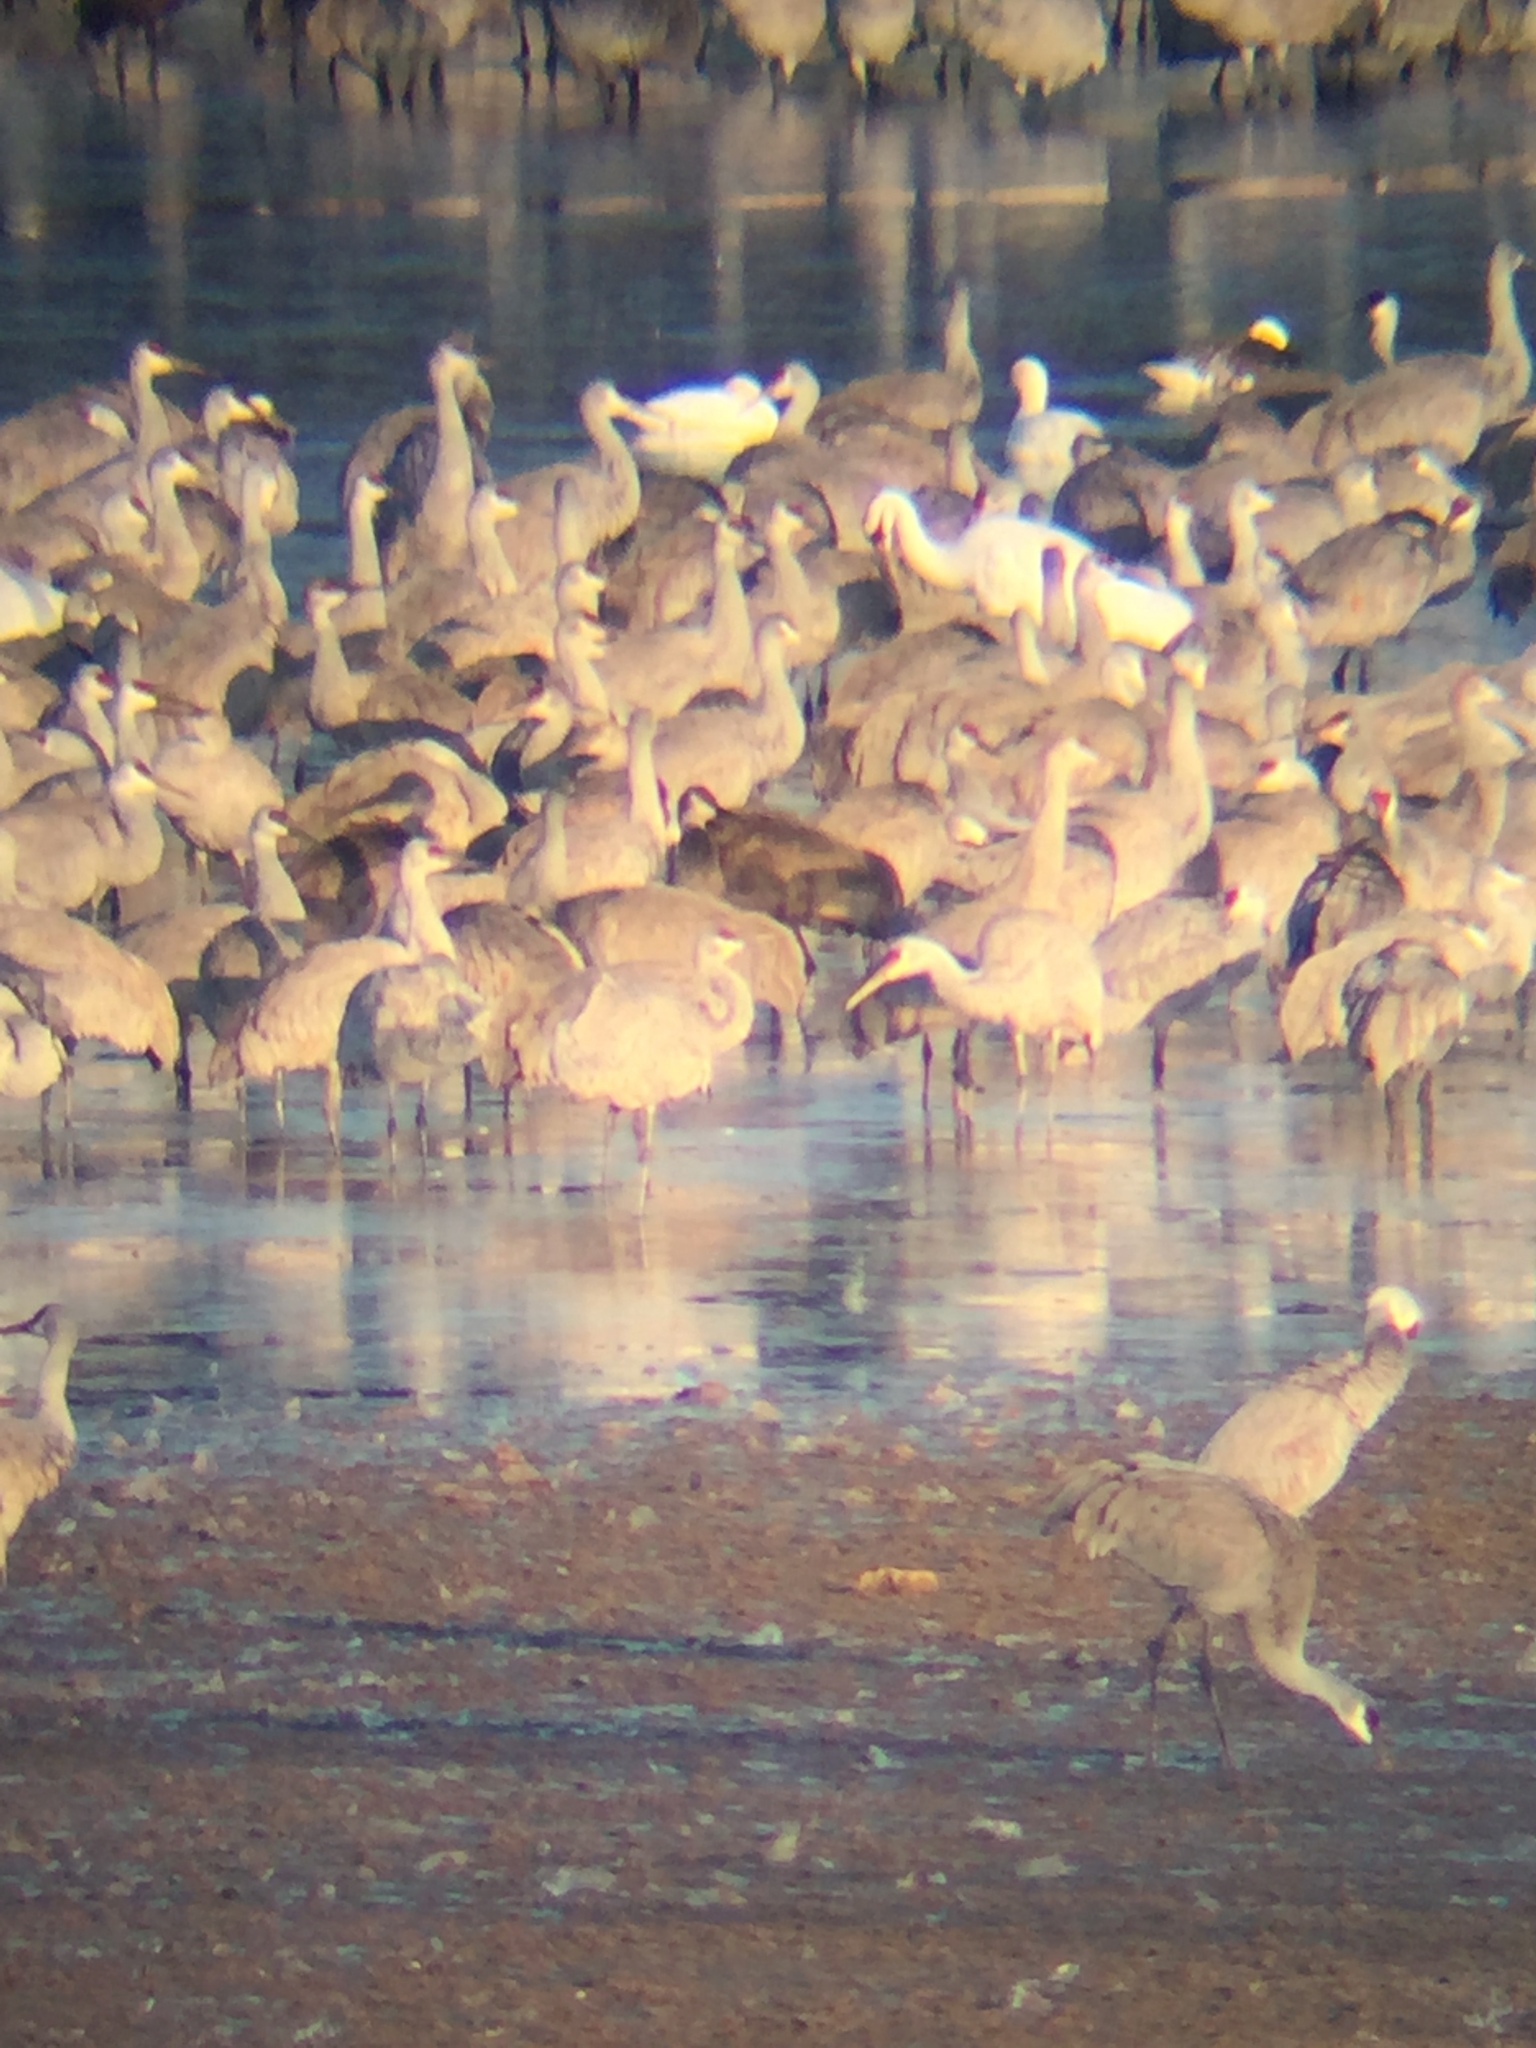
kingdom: Animalia
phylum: Chordata
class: Aves
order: Gruiformes
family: Gruidae
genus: Grus
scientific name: Grus canadensis
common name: Sandhill crane
